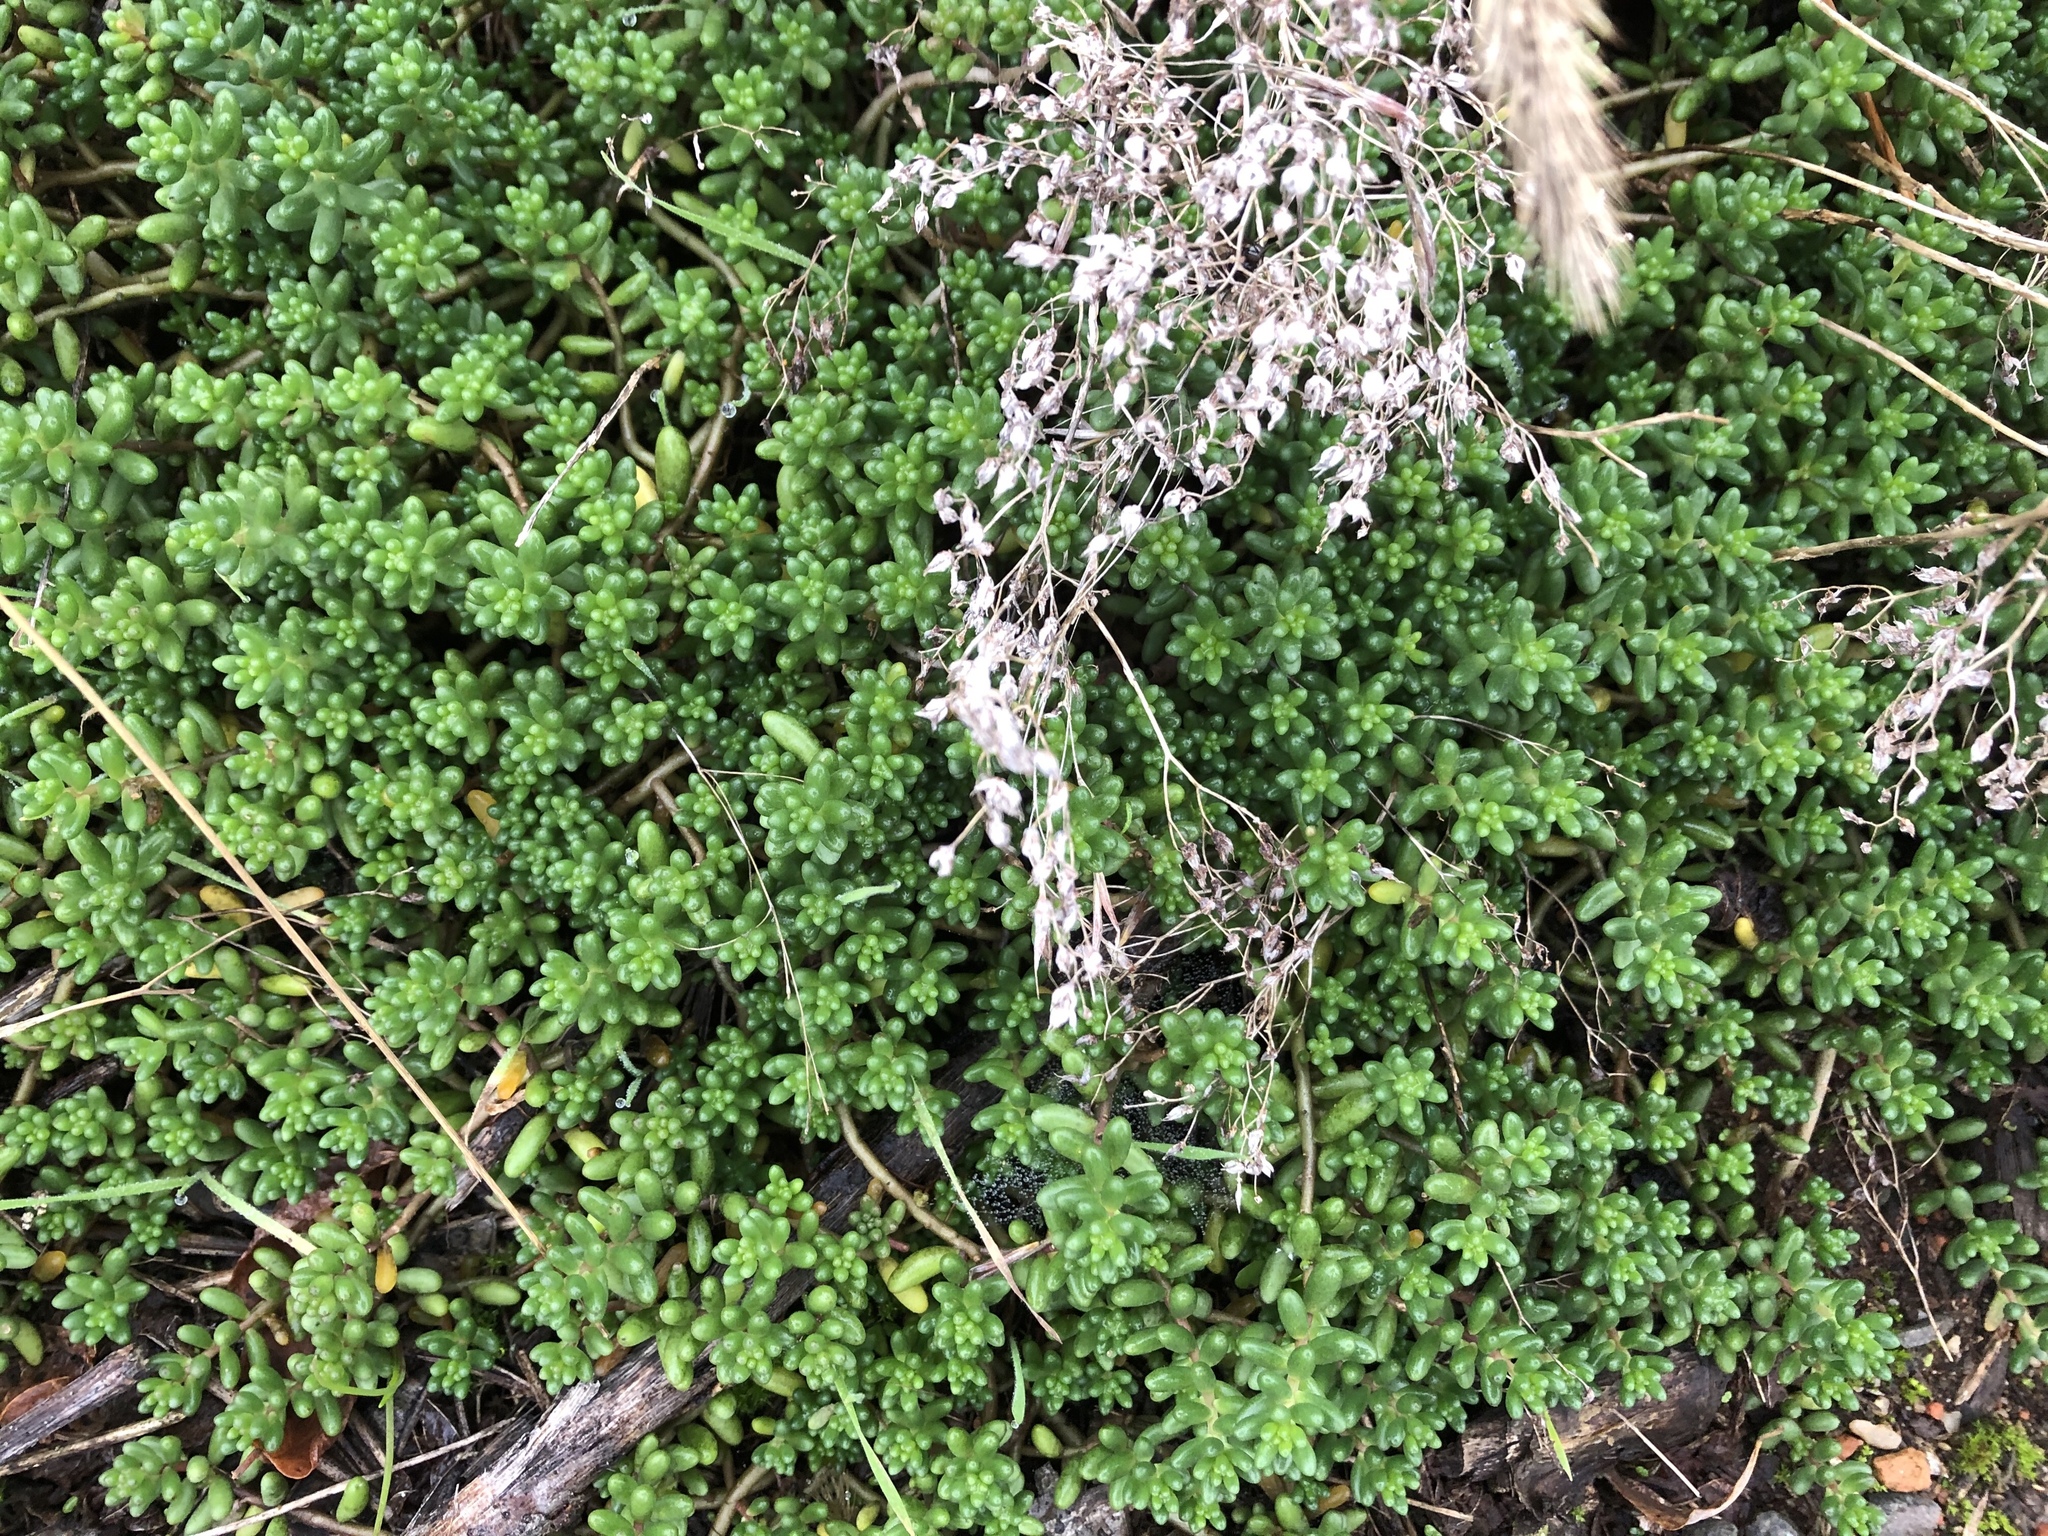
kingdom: Plantae
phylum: Tracheophyta
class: Magnoliopsida
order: Saxifragales
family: Crassulaceae
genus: Sedum
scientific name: Sedum album
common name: White stonecrop
